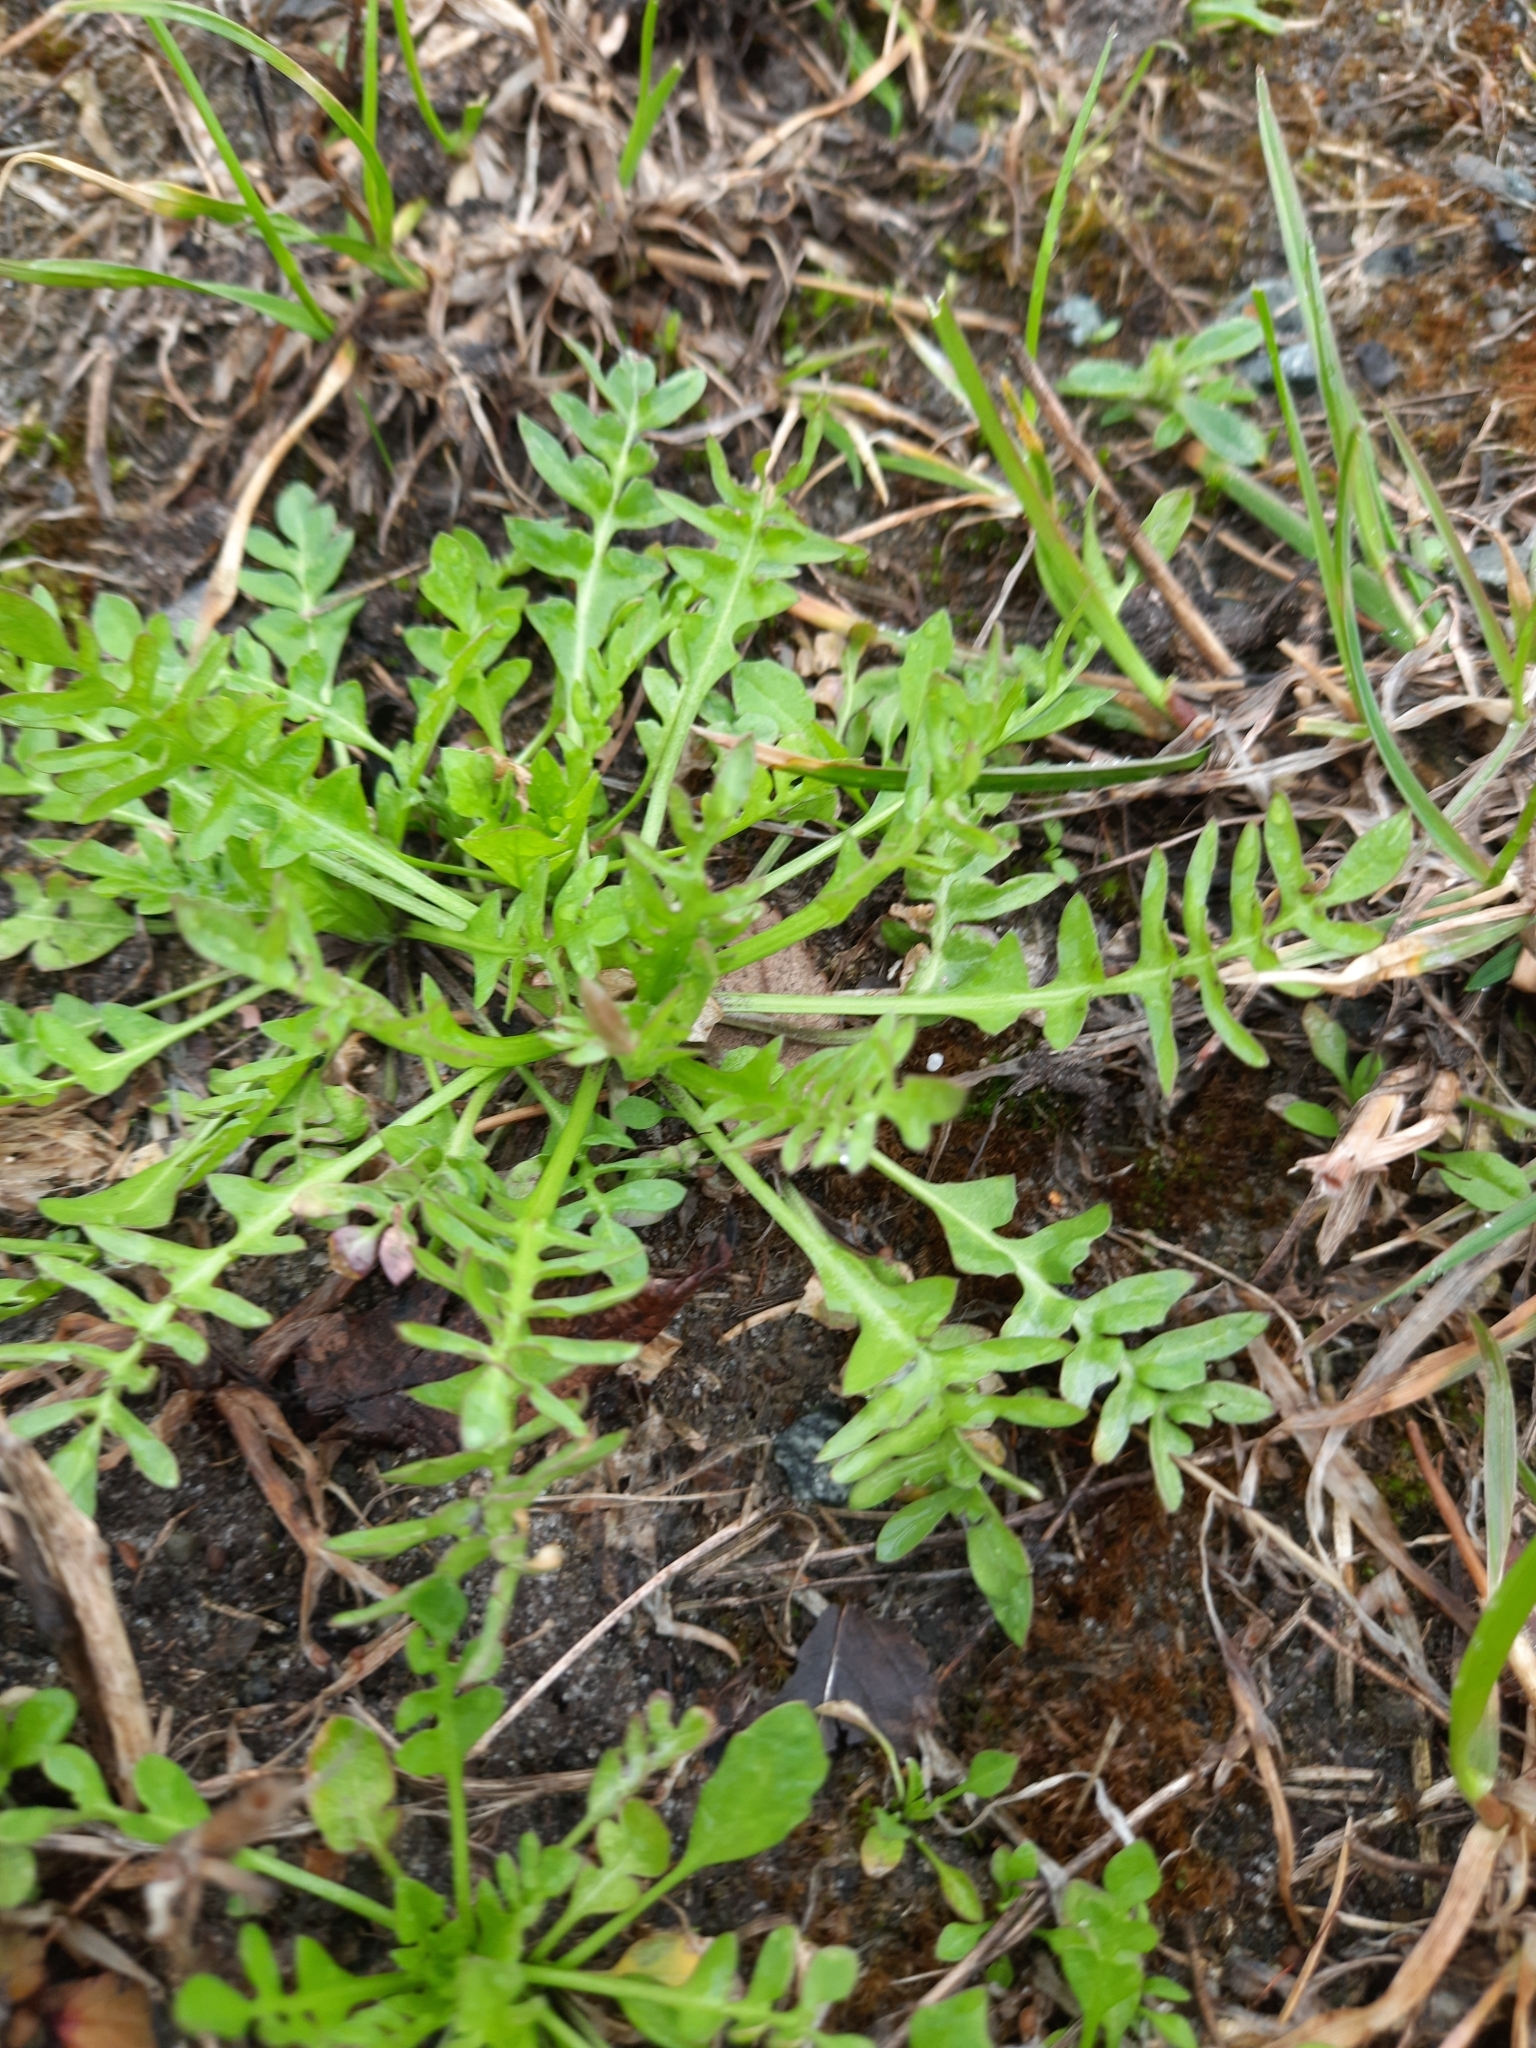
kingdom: Plantae
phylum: Tracheophyta
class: Magnoliopsida
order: Brassicales
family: Brassicaceae
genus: Capsella
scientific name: Capsella bursa-pastoris
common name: Shepherd's purse
